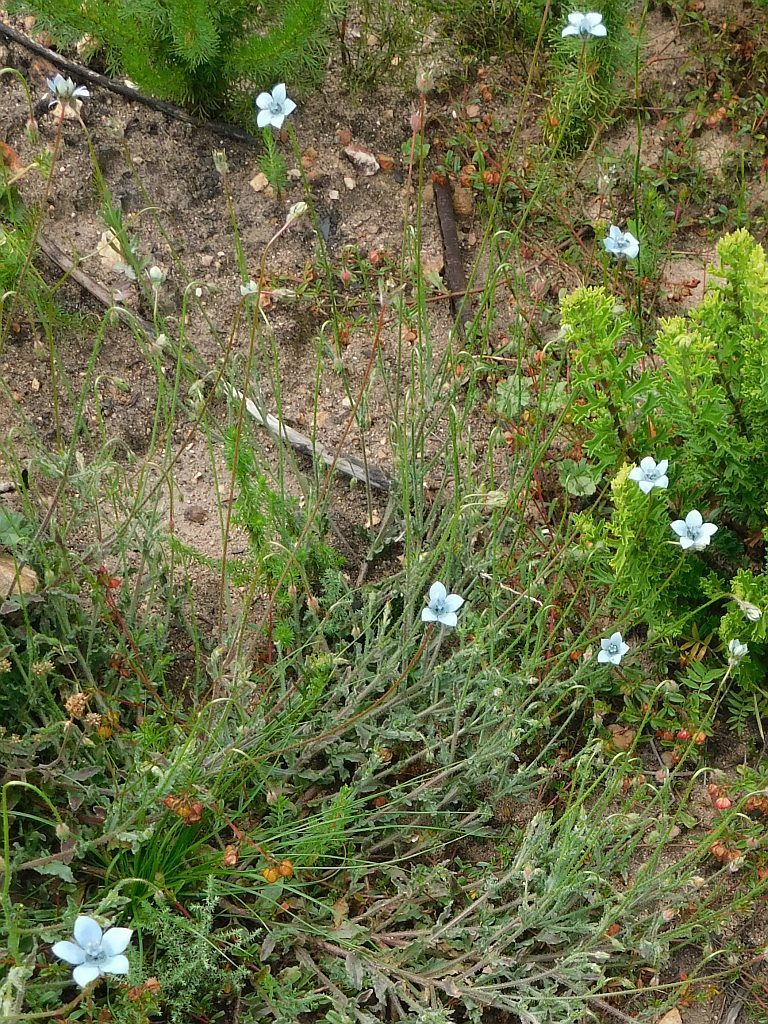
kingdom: Plantae
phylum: Tracheophyta
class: Magnoliopsida
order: Asterales
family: Campanulaceae
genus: Wahlenbergia
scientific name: Wahlenbergia capensis
